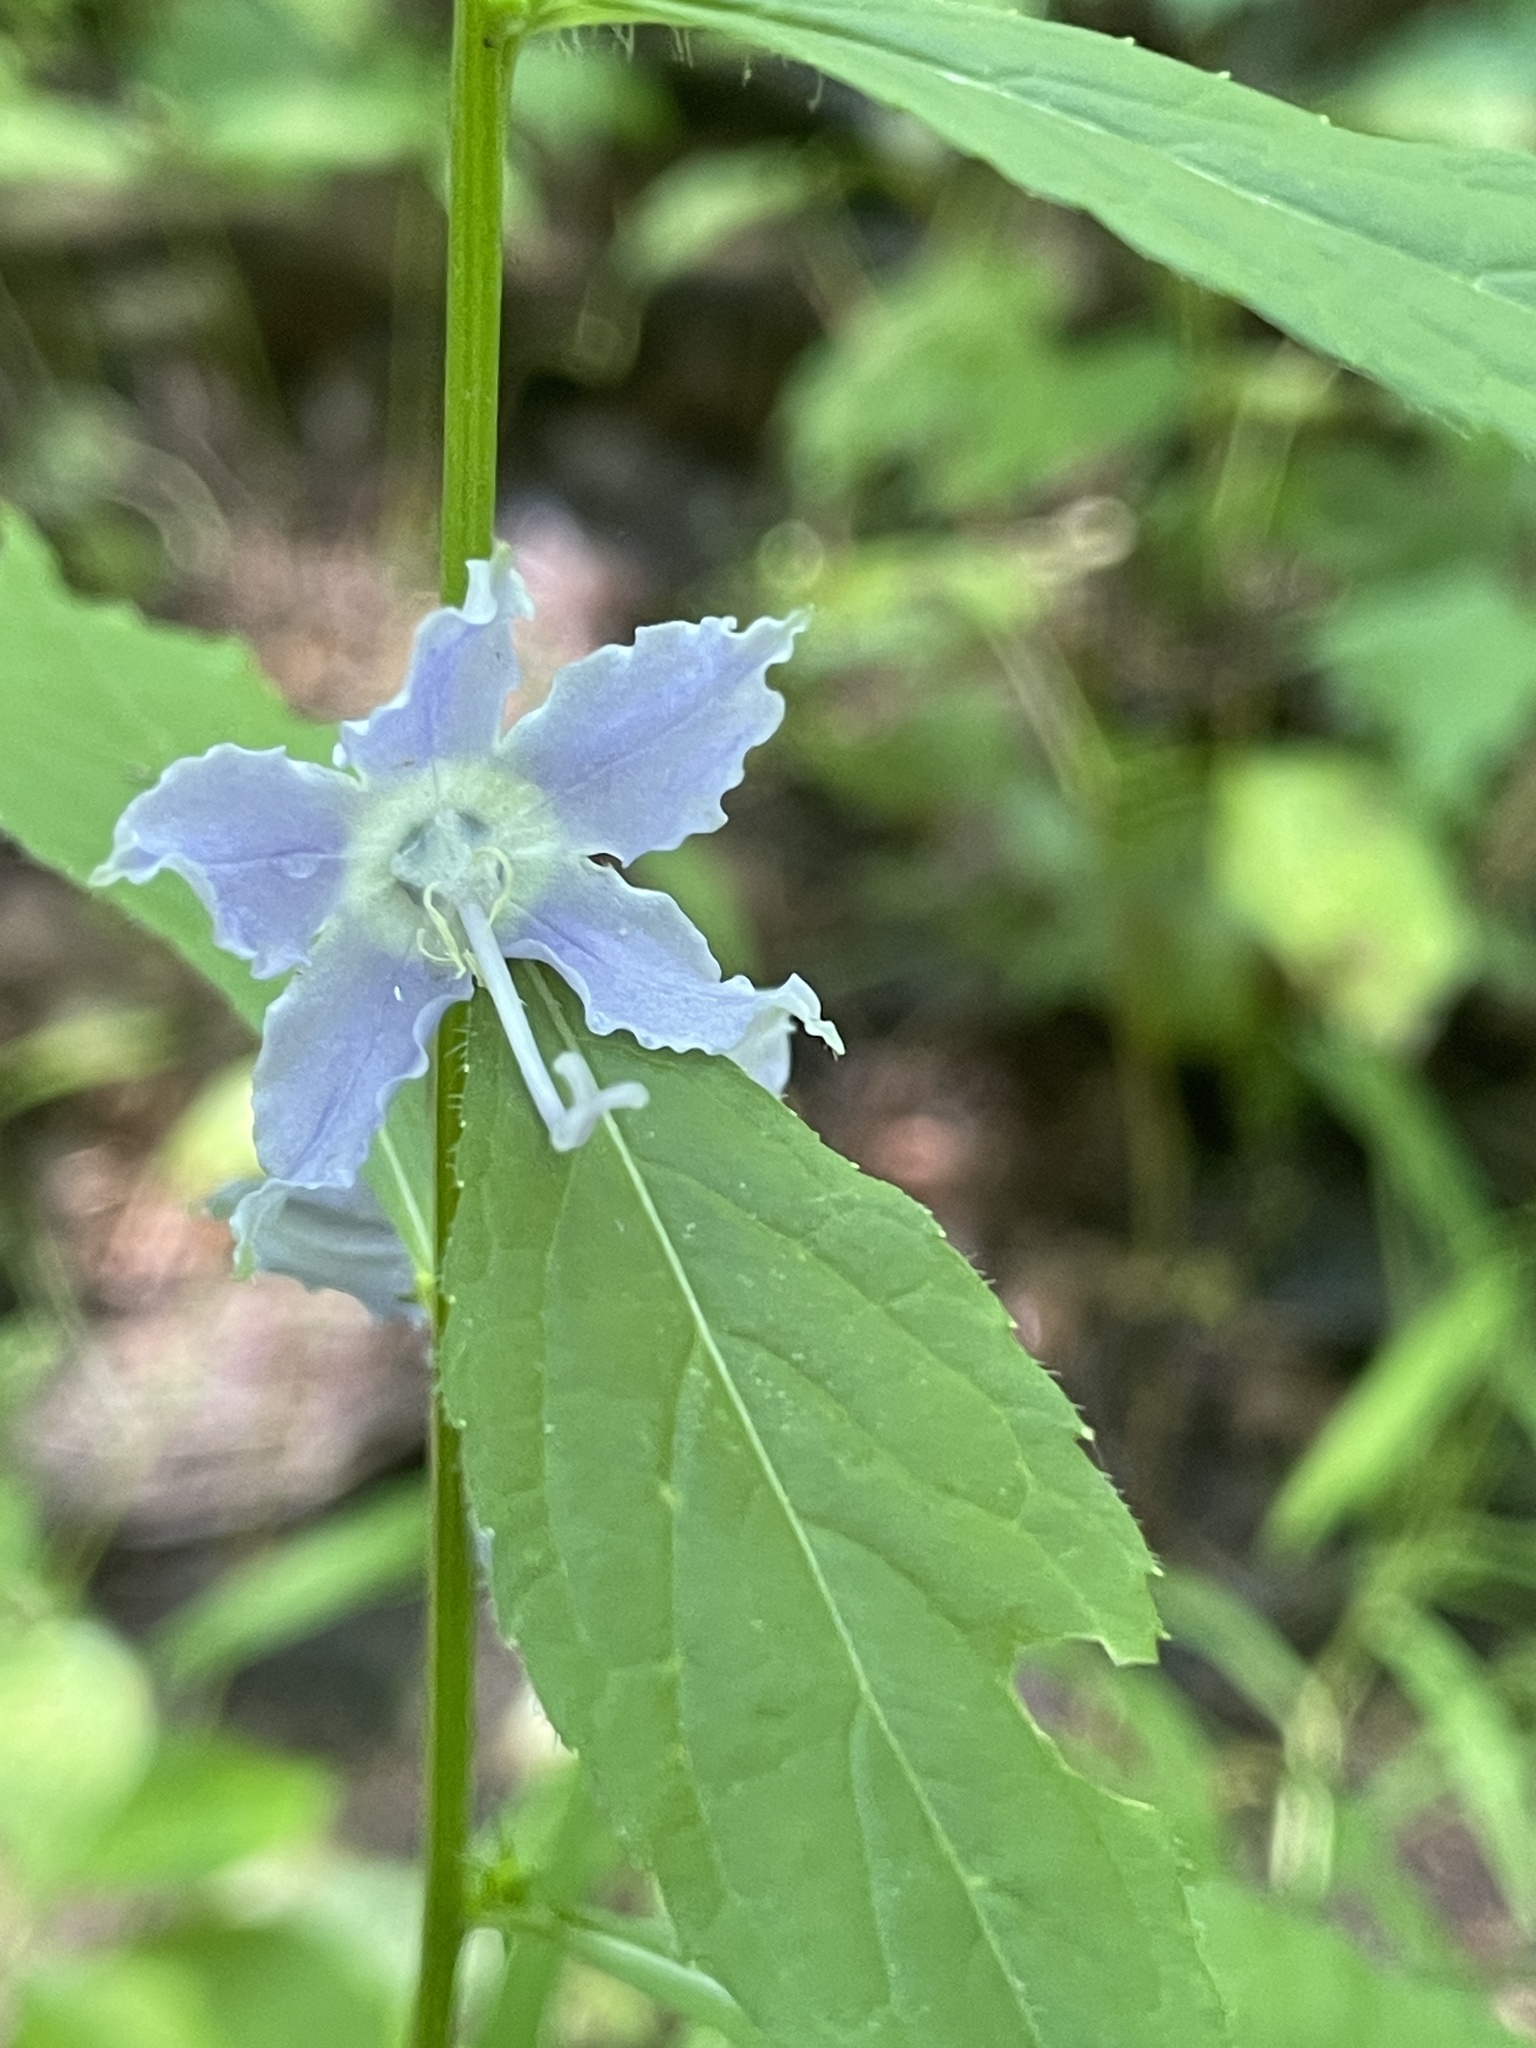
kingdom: Plantae
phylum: Tracheophyta
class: Magnoliopsida
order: Asterales
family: Campanulaceae
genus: Campanulastrum
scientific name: Campanulastrum americanum
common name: American bellflower
